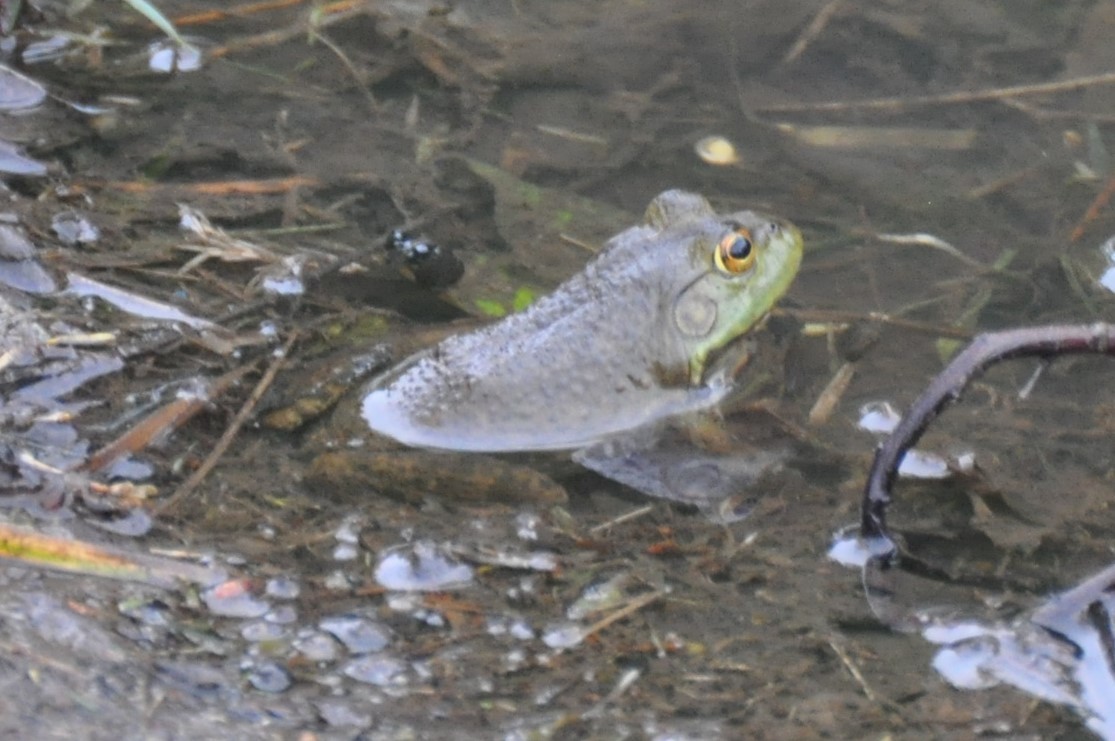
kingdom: Animalia
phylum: Chordata
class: Amphibia
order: Anura
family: Ranidae
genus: Lithobates
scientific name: Lithobates catesbeianus
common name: American bullfrog
